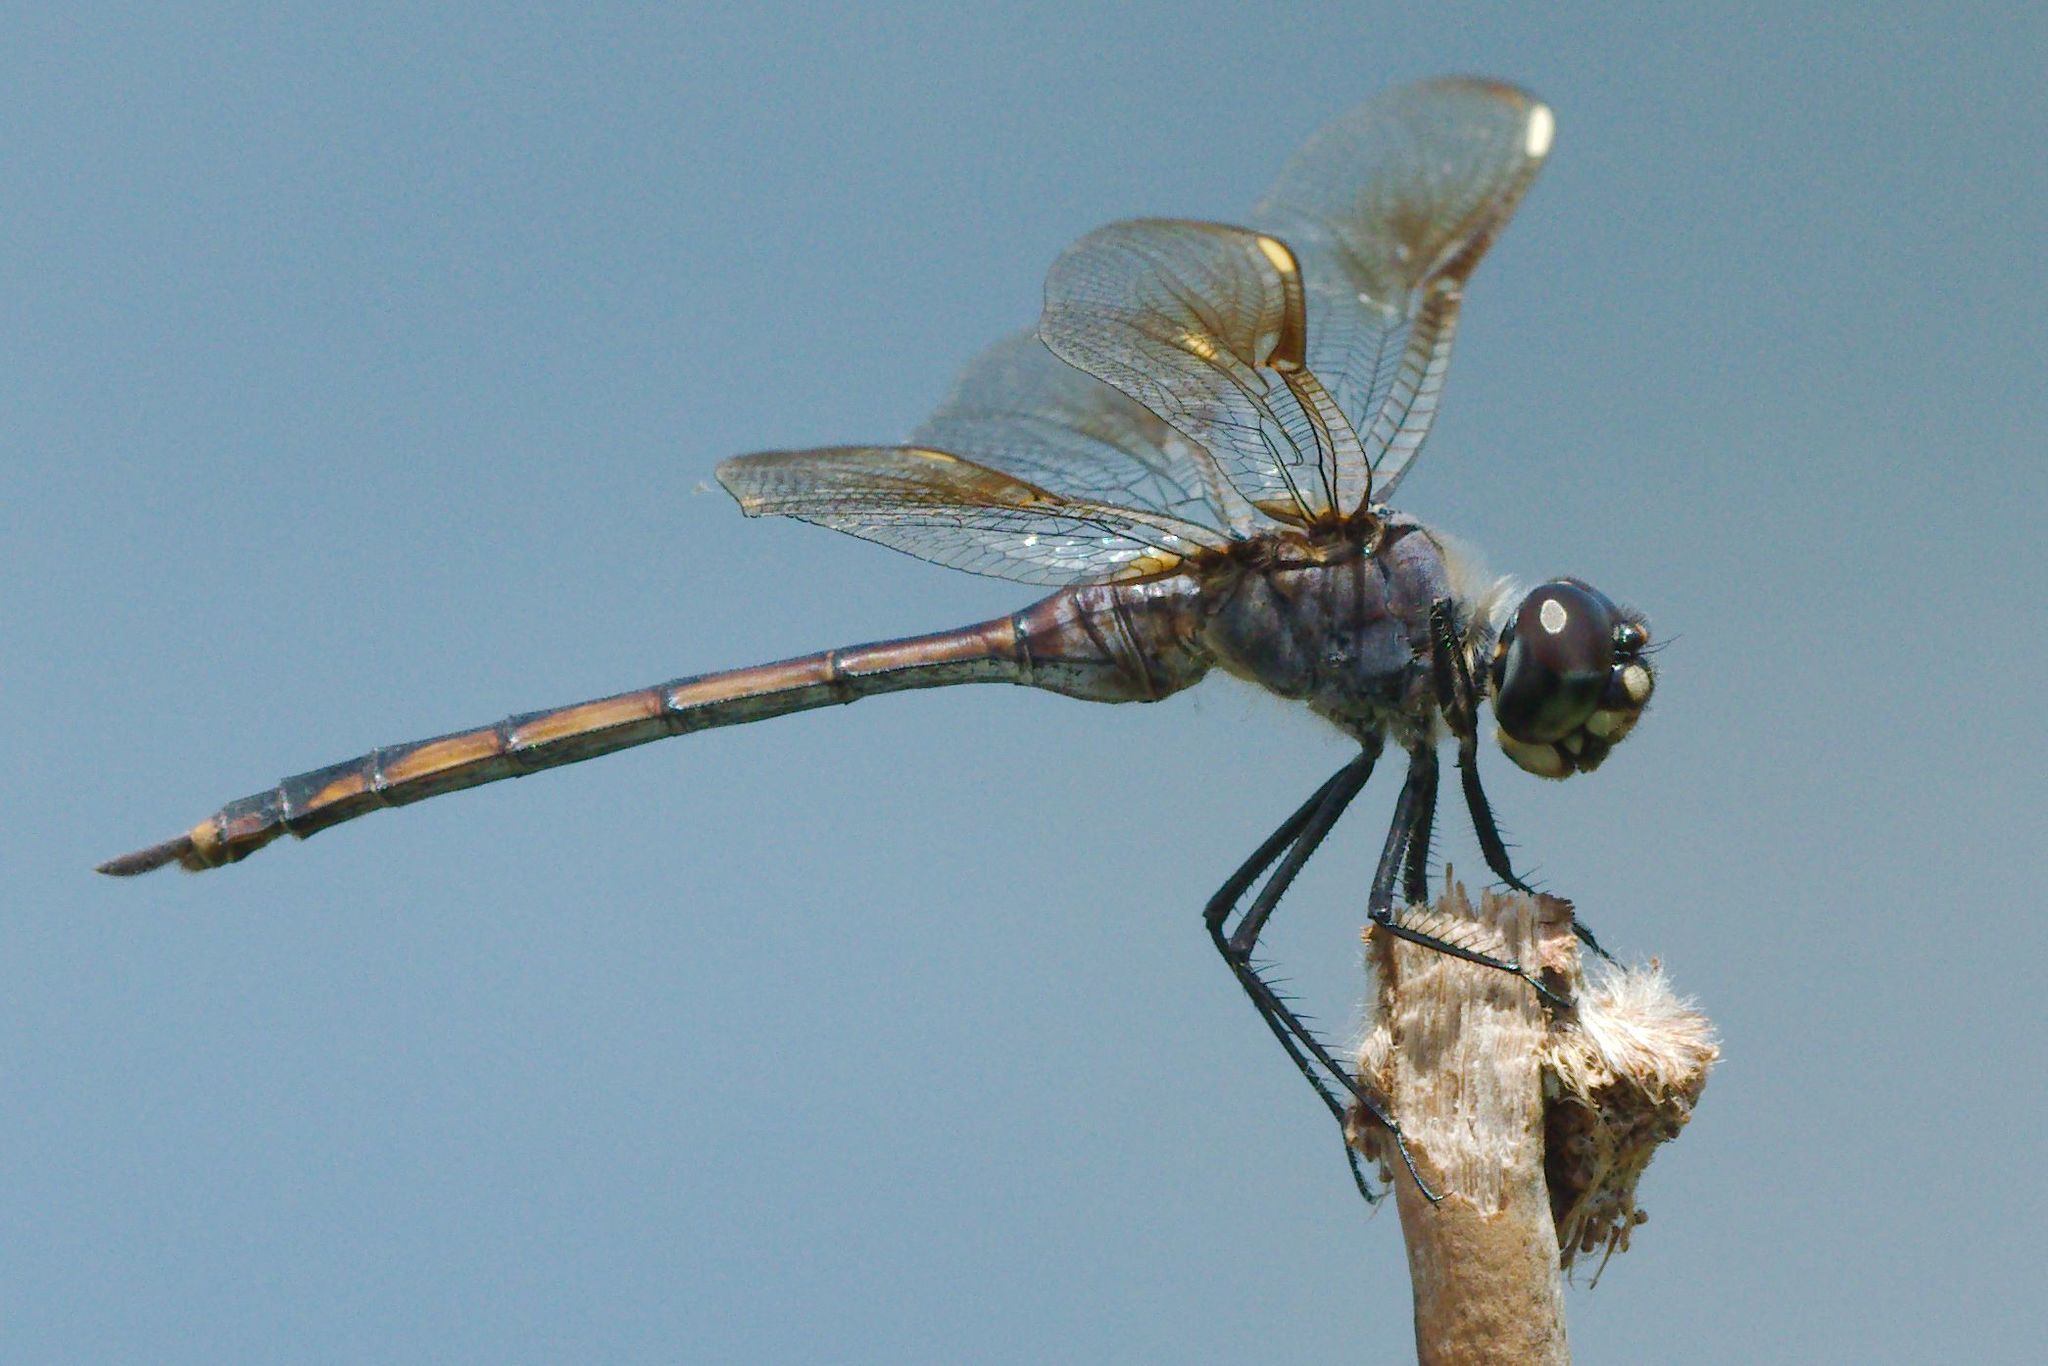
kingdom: Animalia
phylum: Arthropoda
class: Insecta
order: Odonata
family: Libellulidae
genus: Brachymesia
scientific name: Brachymesia gravida
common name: Four-spotted pennant
